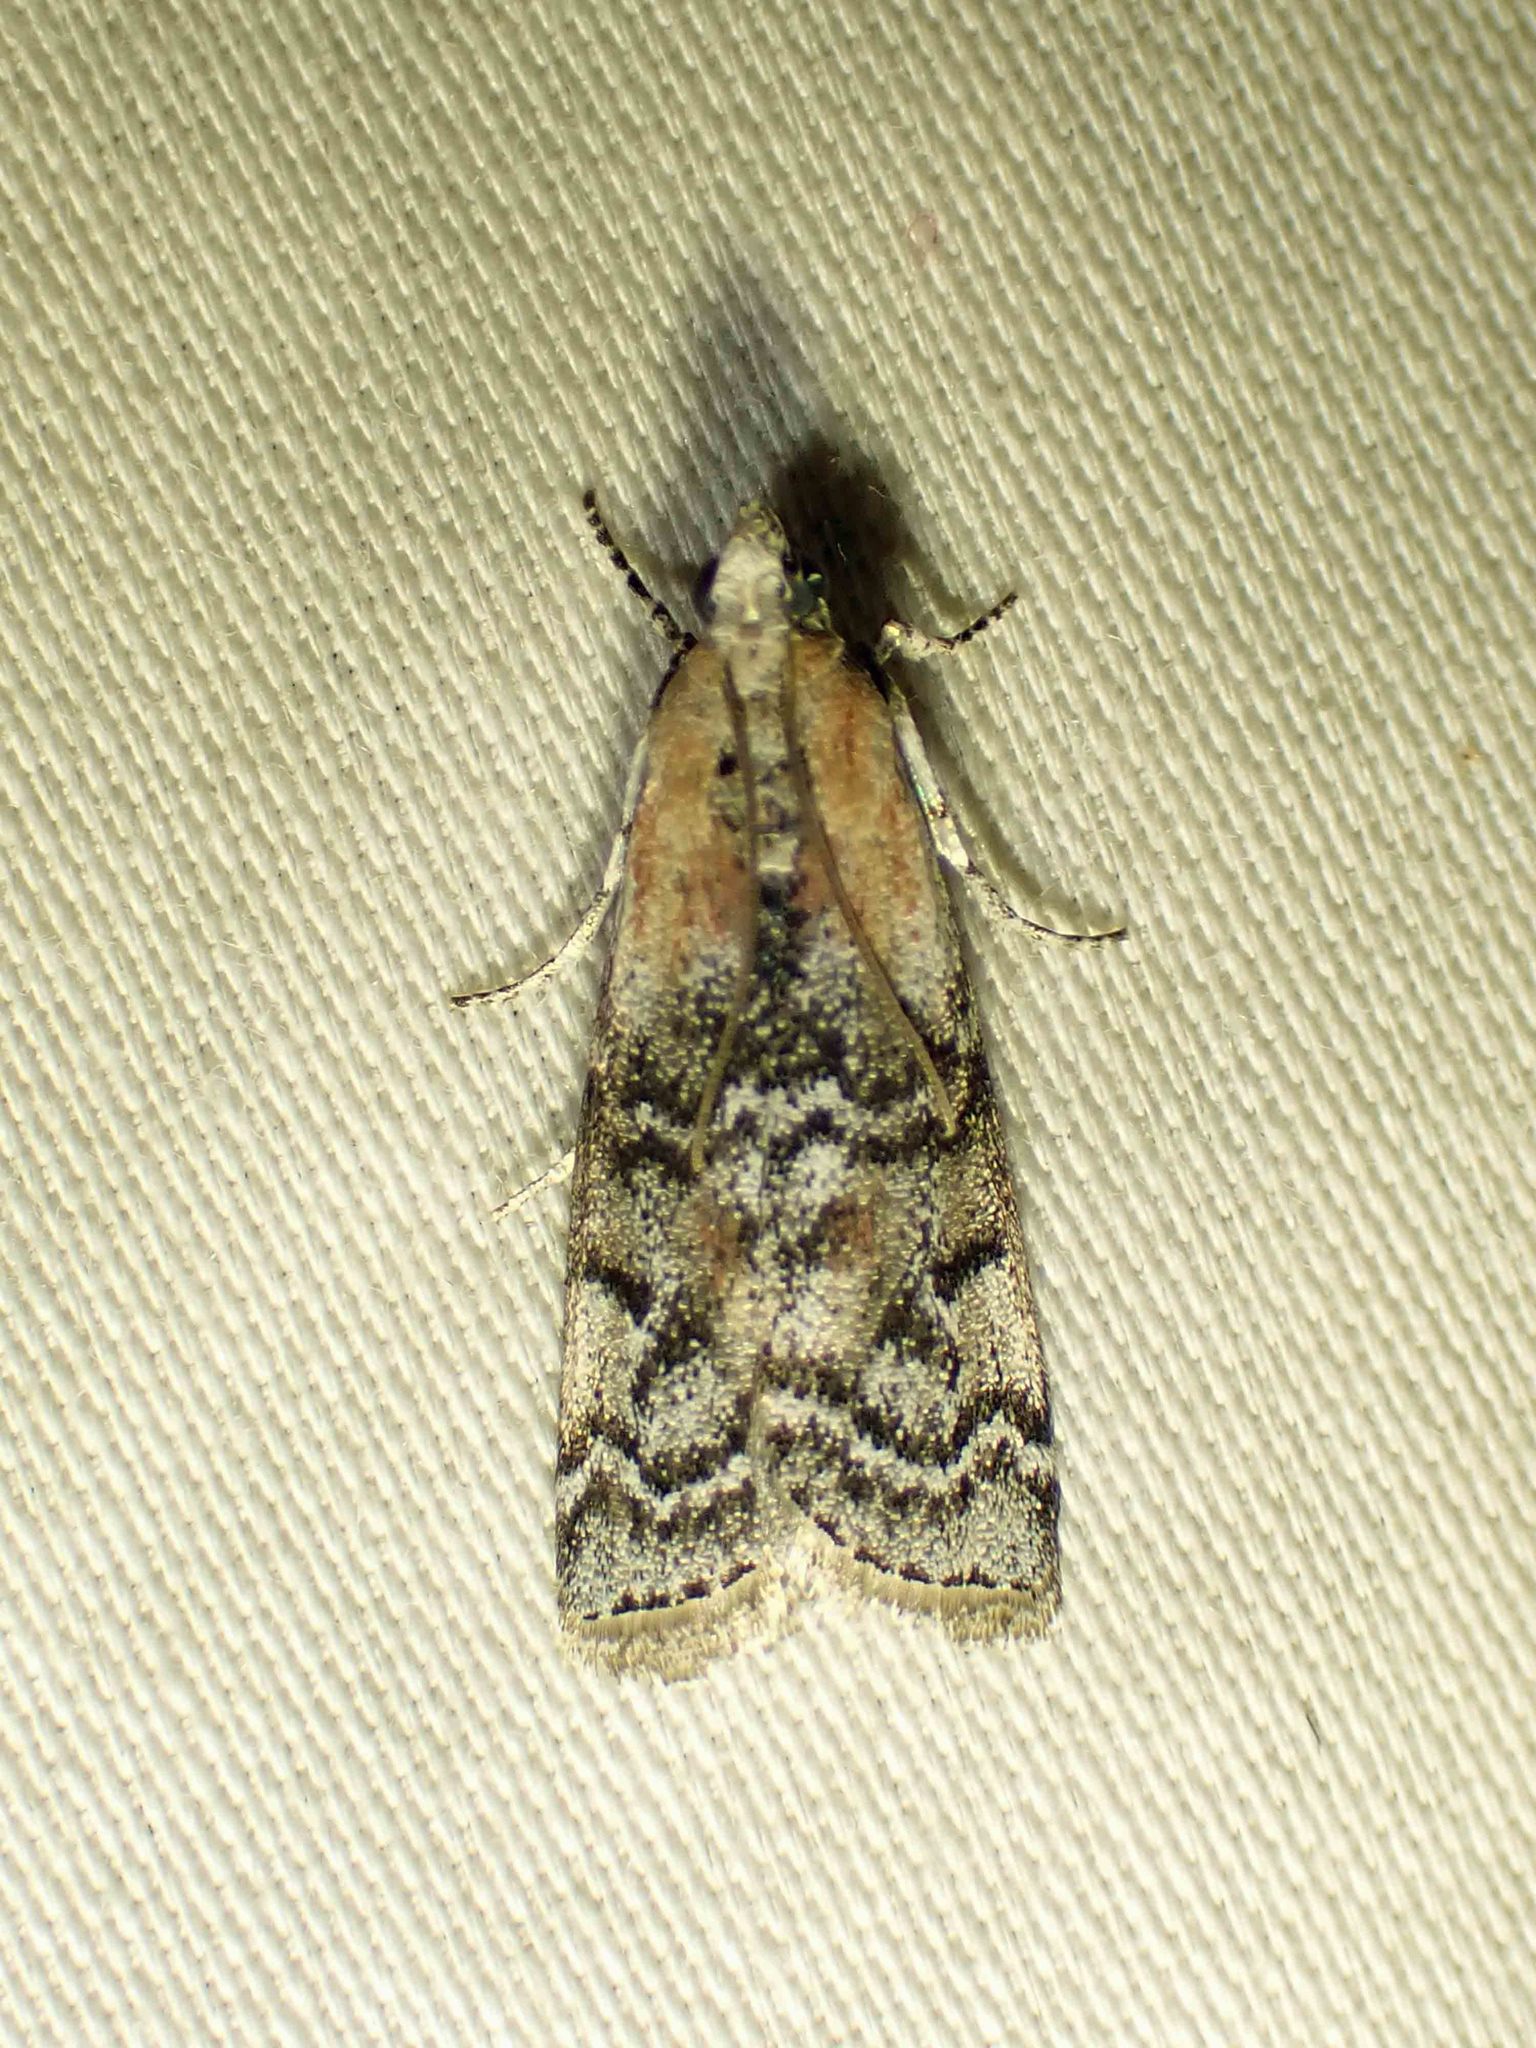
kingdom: Animalia
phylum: Arthropoda
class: Insecta
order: Lepidoptera
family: Pyralidae
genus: Glyptocera
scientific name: Glyptocera consobrinella
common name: Viburnum glyptocera moth
